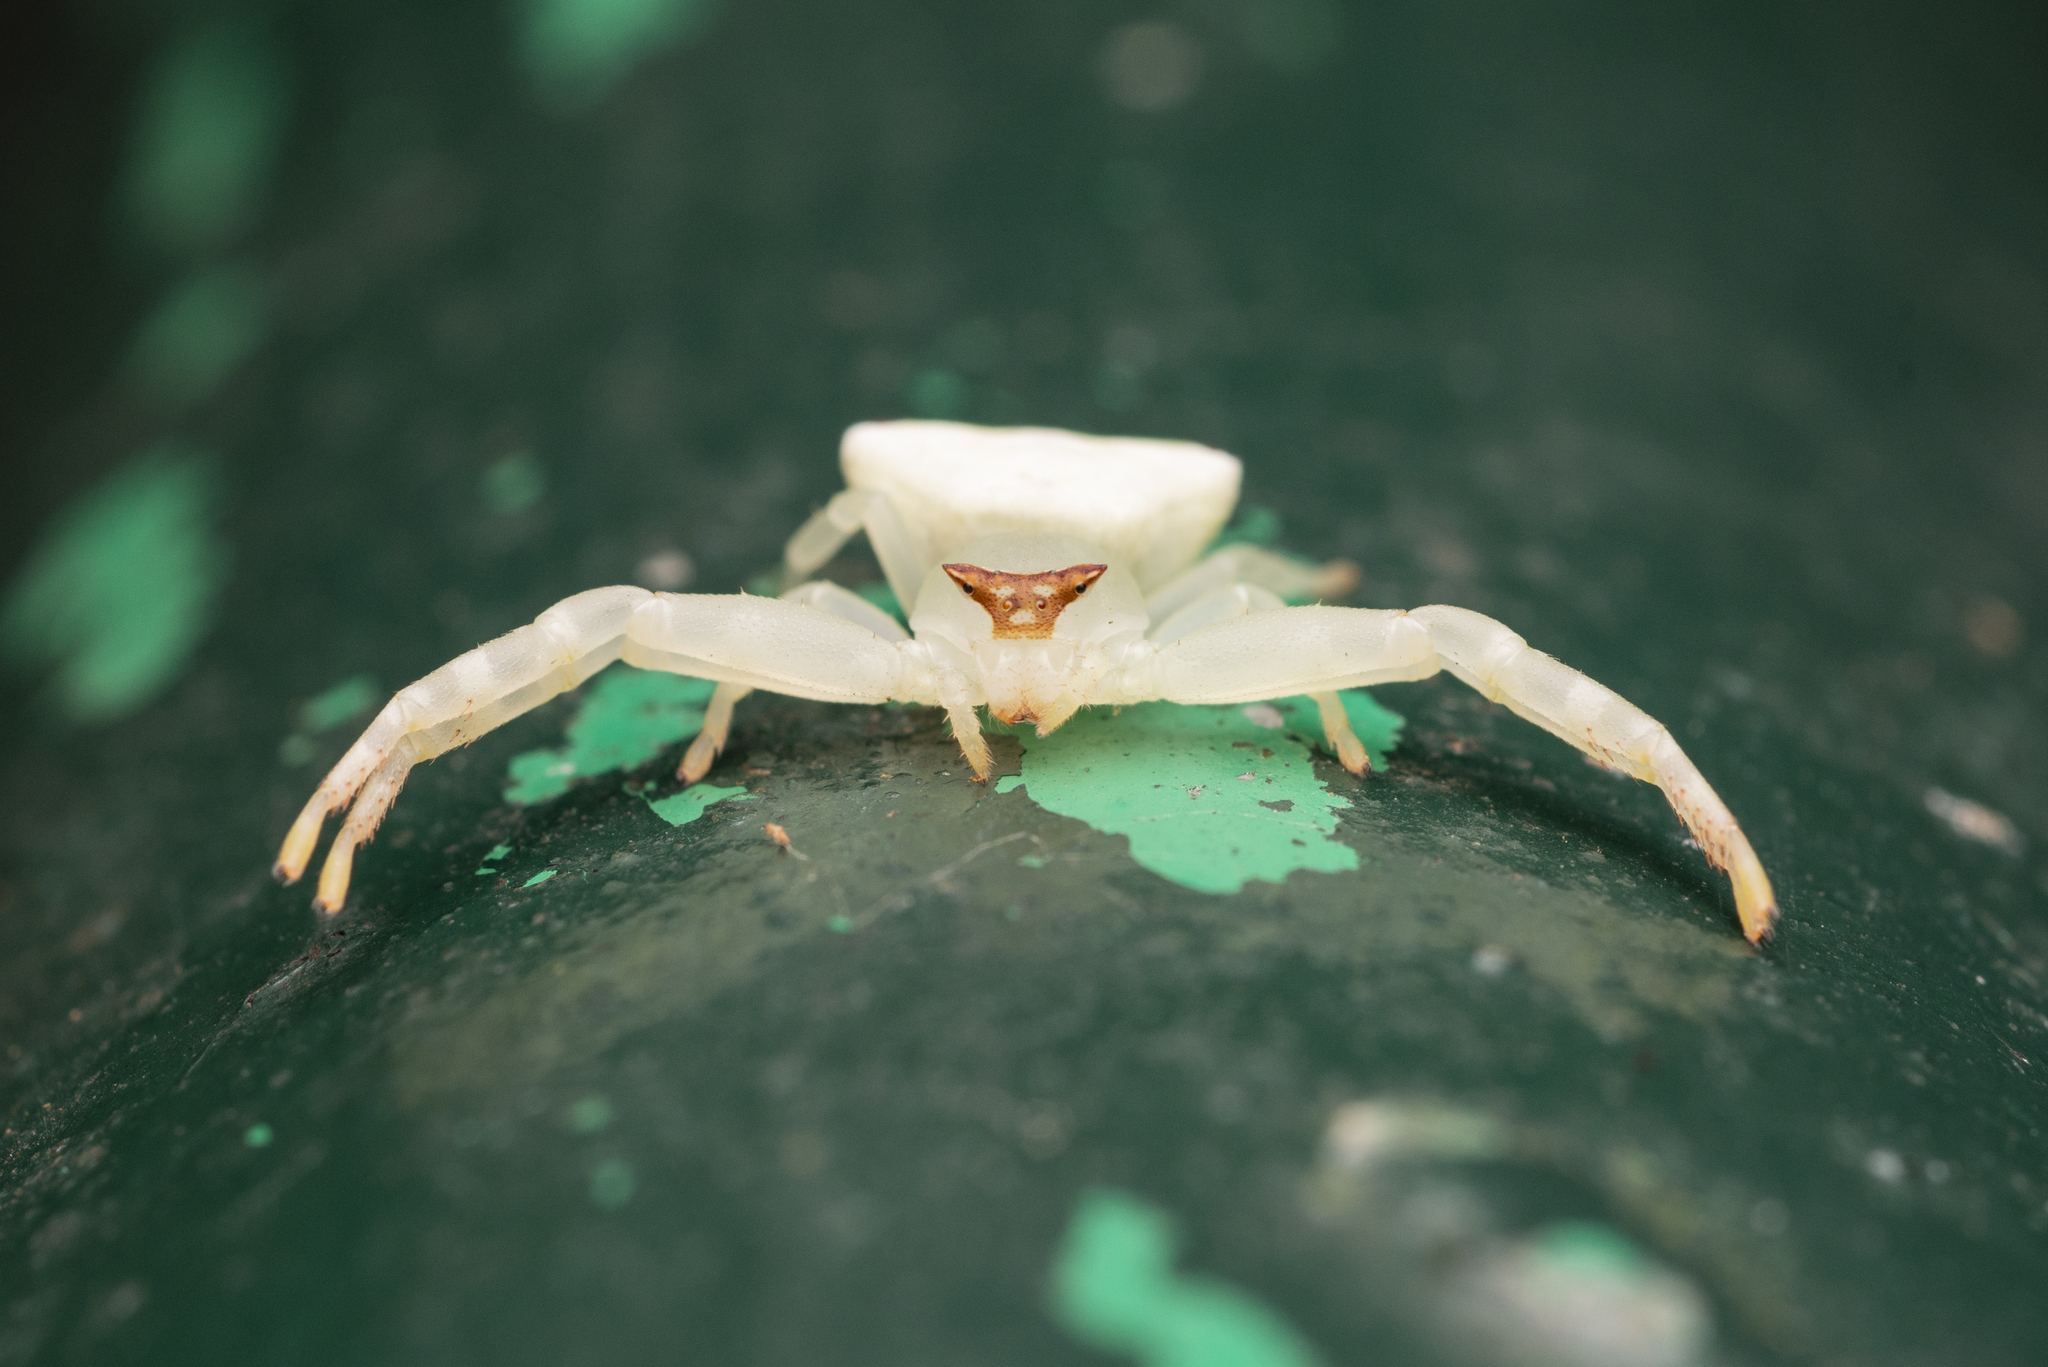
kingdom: Animalia
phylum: Arthropoda
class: Arachnida
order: Araneae
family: Thomisidae
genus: Thomisus
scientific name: Thomisus labefactus
